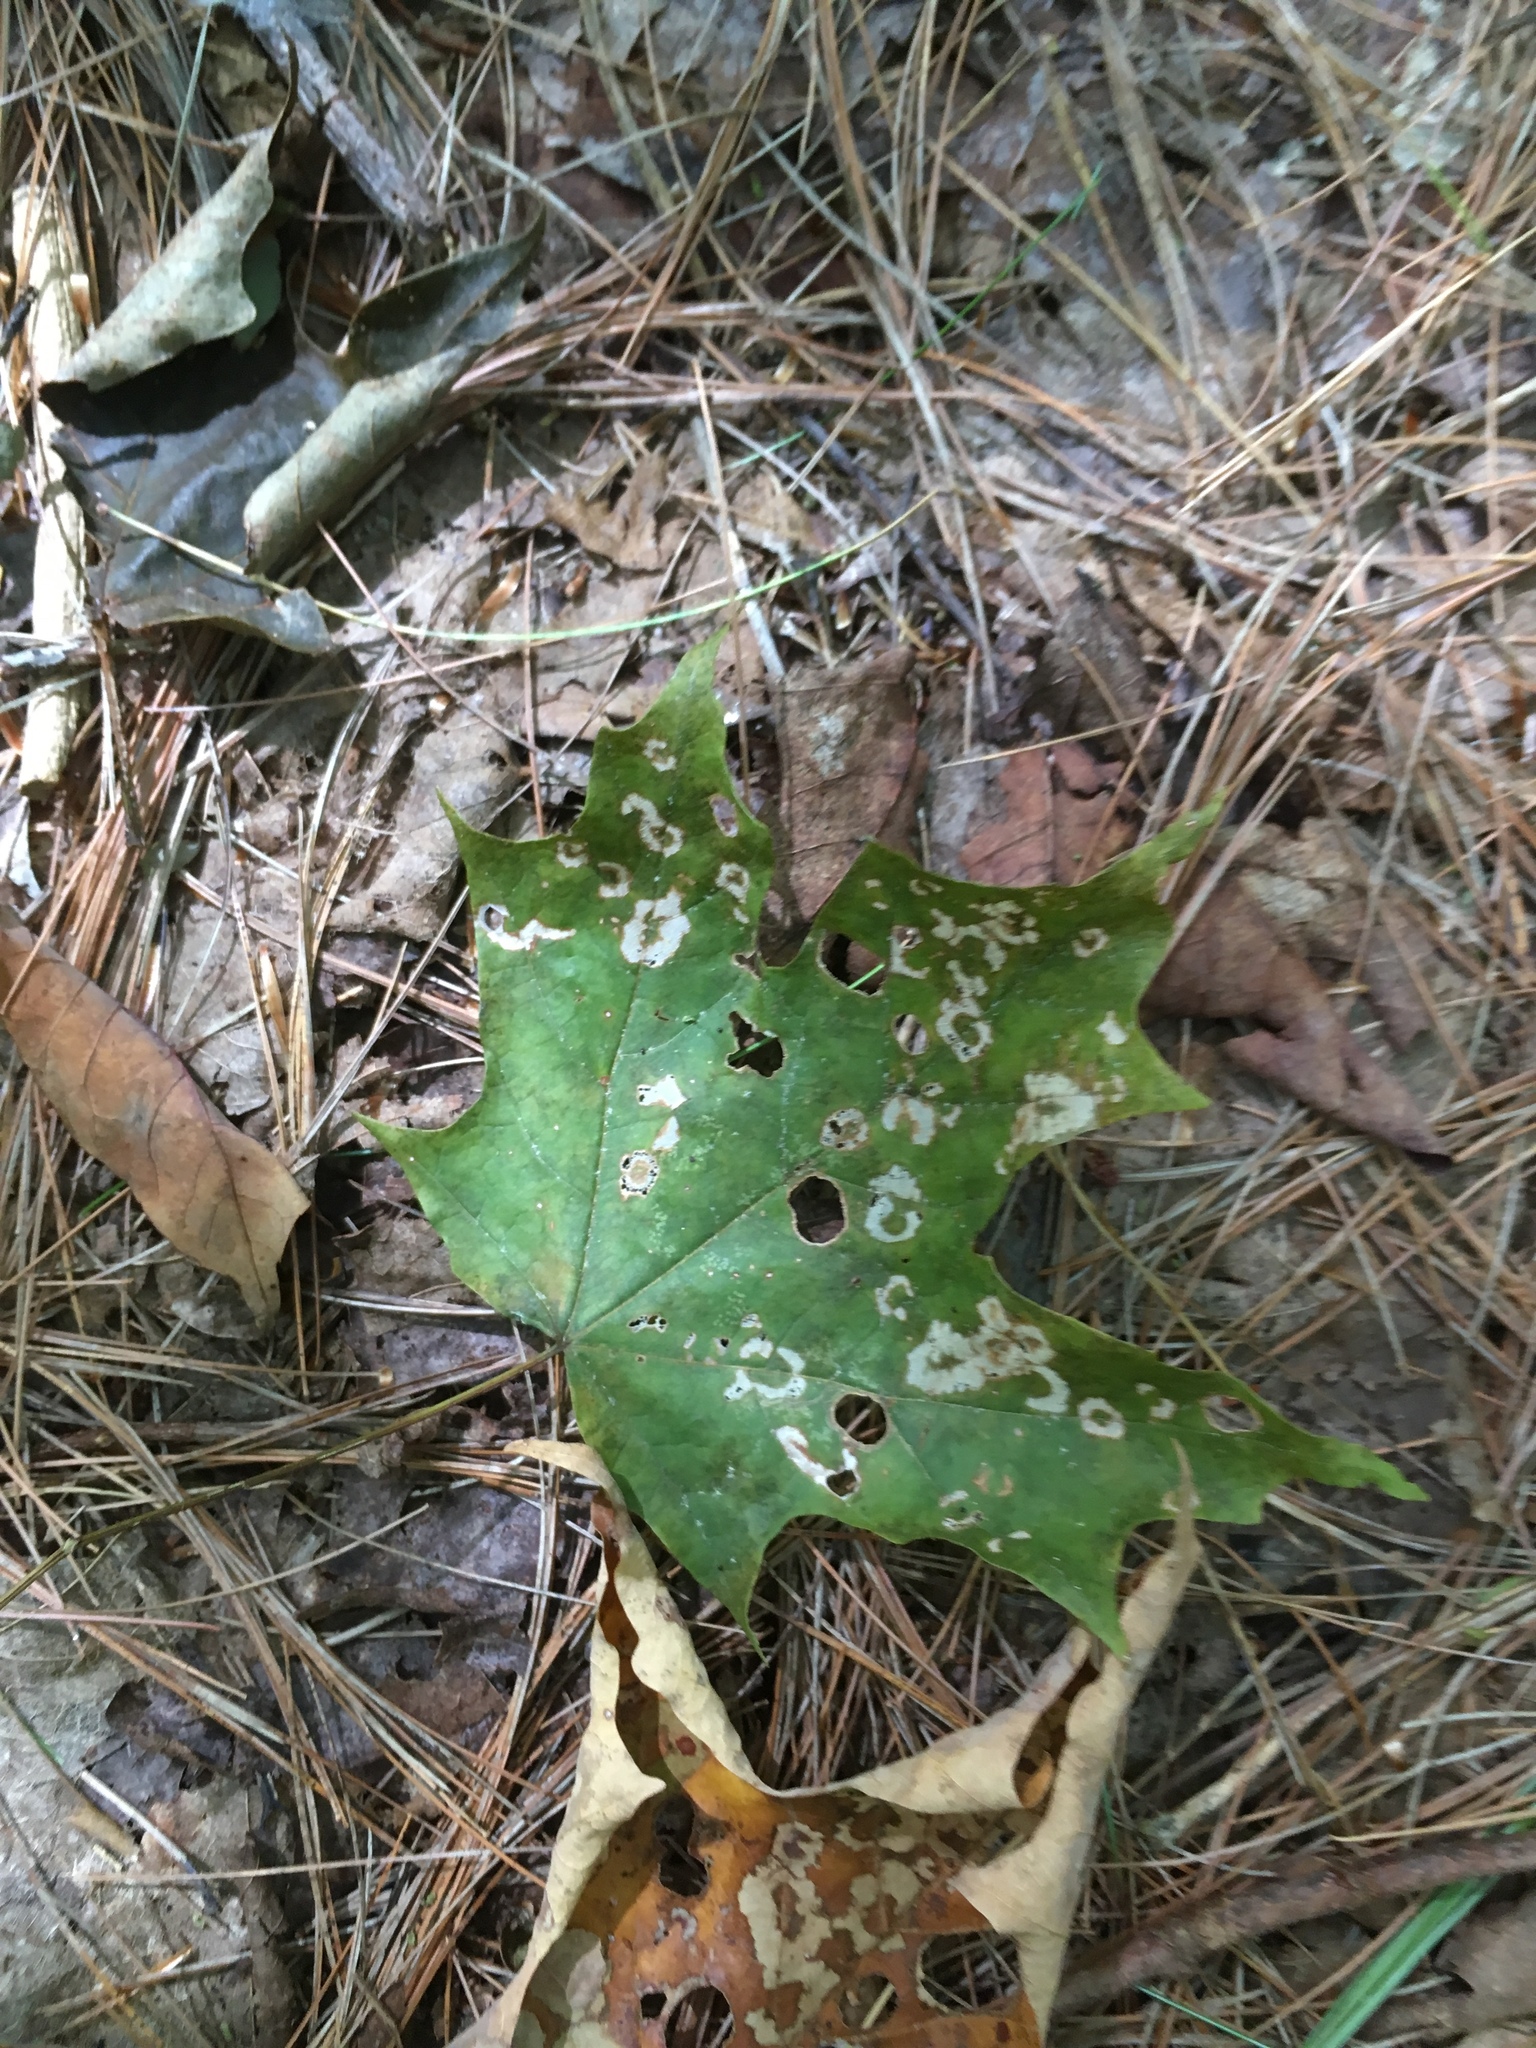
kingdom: Animalia
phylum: Arthropoda
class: Insecta
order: Lepidoptera
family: Incurvariidae
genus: Paraclemensia
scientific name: Paraclemensia acerifoliella
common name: Maple leafcutter
